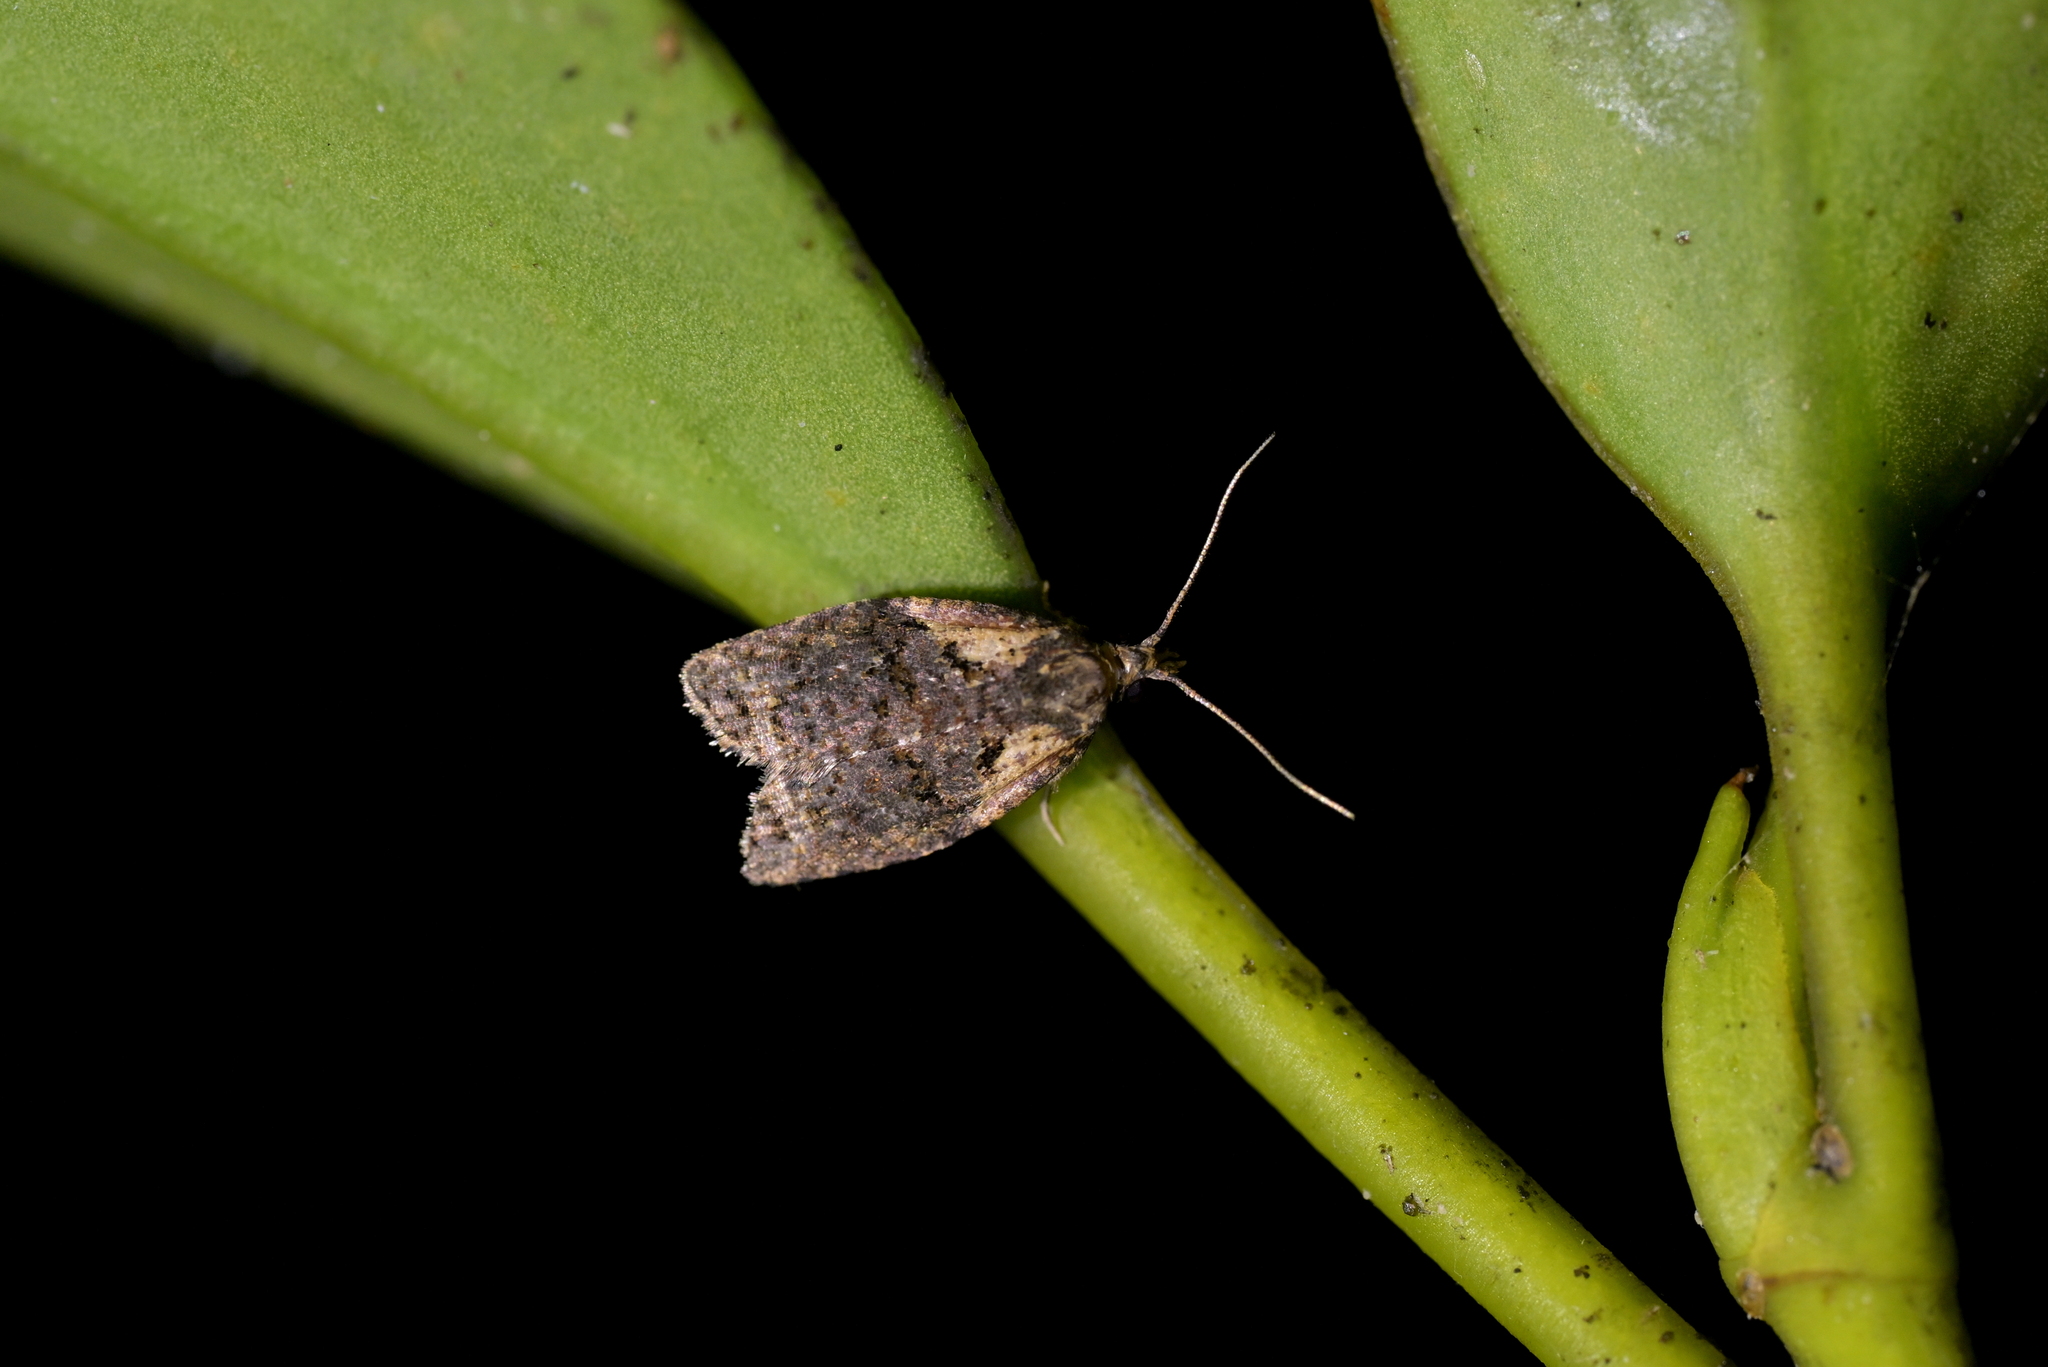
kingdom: Animalia
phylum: Arthropoda
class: Insecta
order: Lepidoptera
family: Tortricidae
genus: Capua
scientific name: Capua intractana
